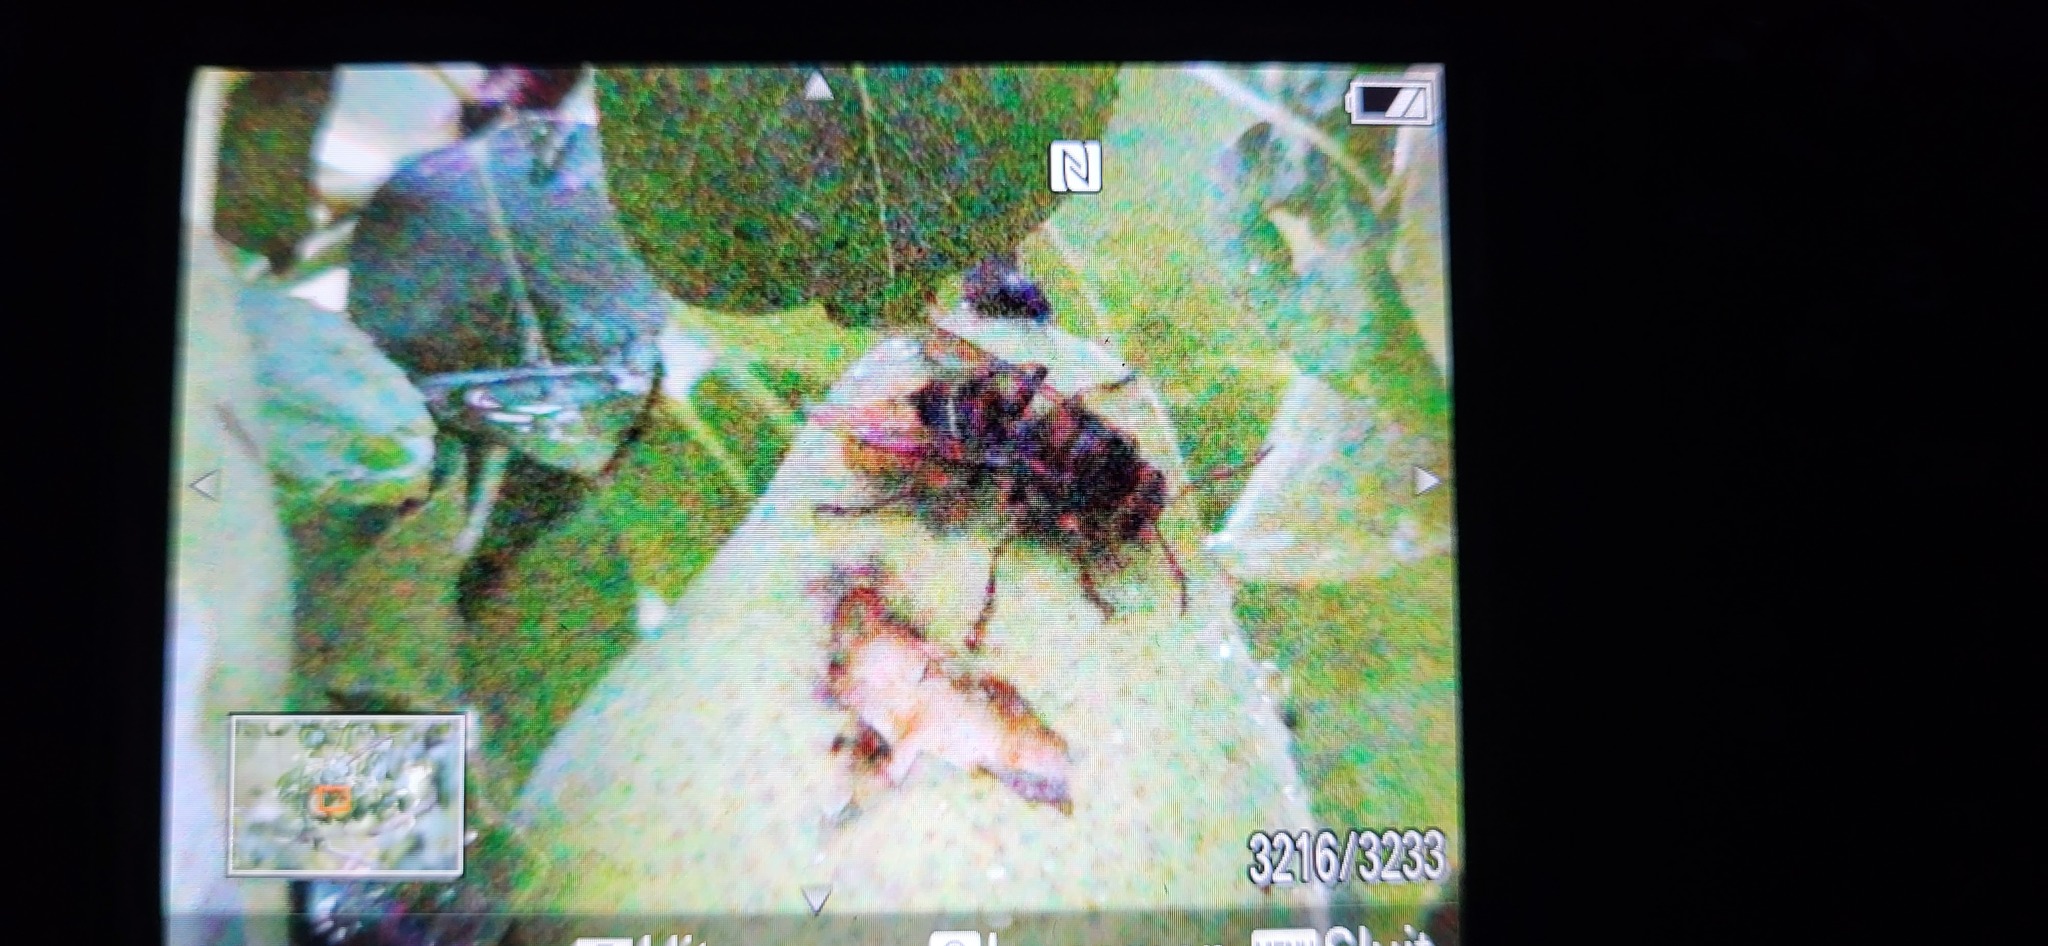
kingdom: Animalia
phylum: Arthropoda
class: Insecta
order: Hymenoptera
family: Vespidae
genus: Vespa
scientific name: Vespa crabro
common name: Hornet
